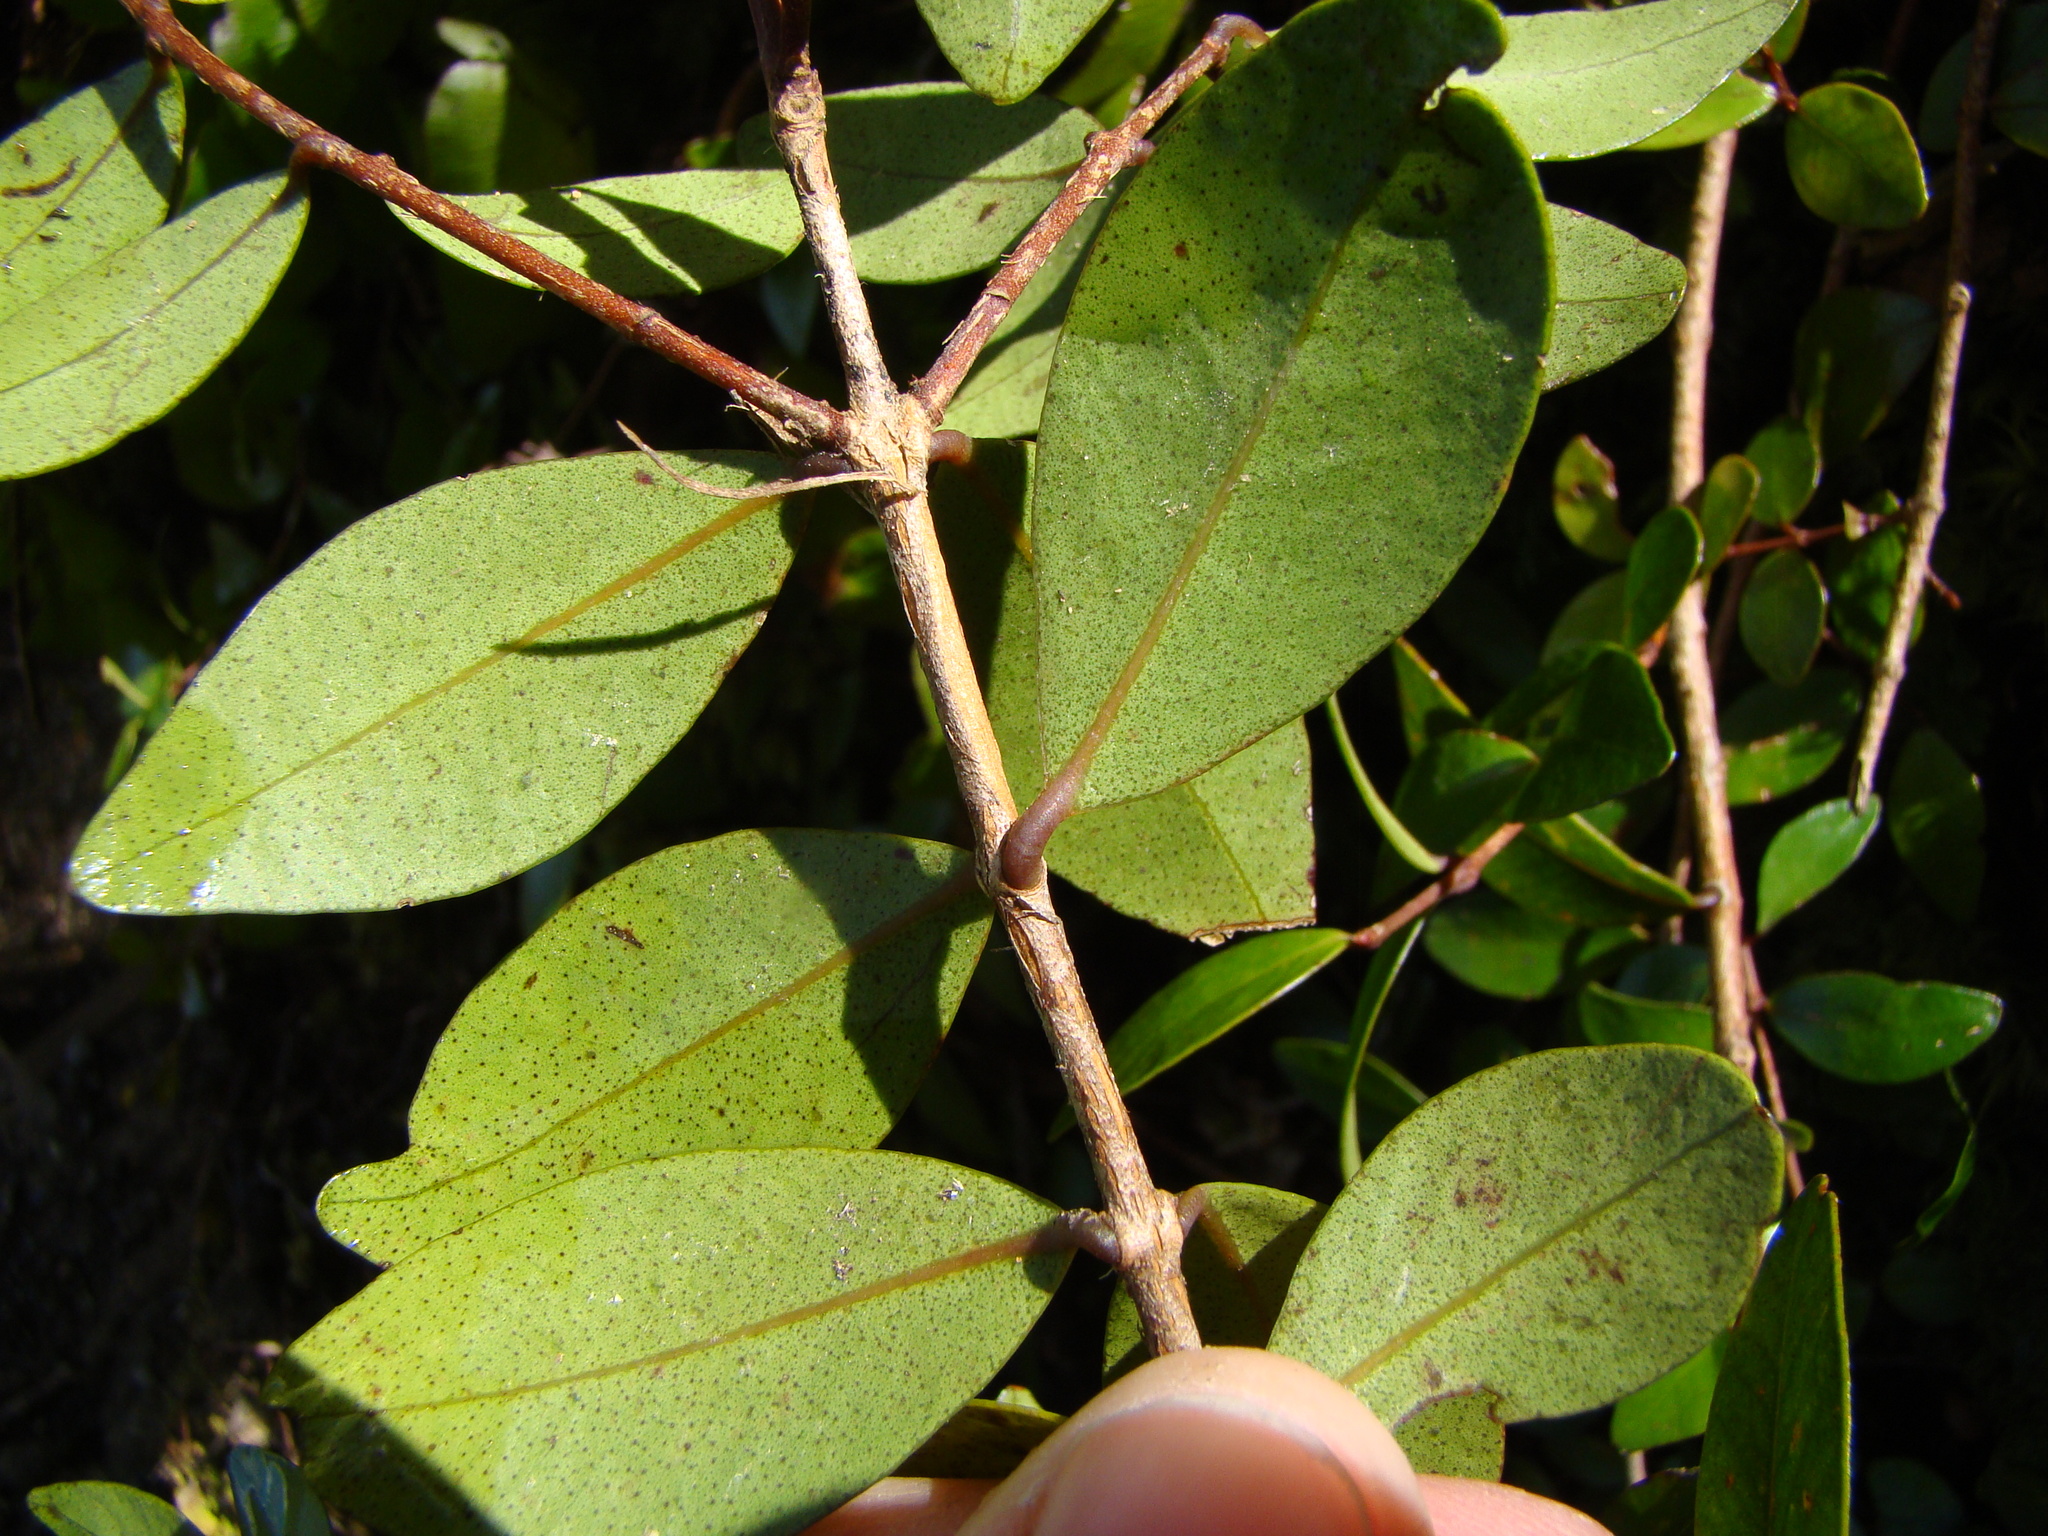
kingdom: Plantae
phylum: Tracheophyta
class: Magnoliopsida
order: Myrtales
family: Myrtaceae
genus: Metrosideros
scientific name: Metrosideros fulgens
